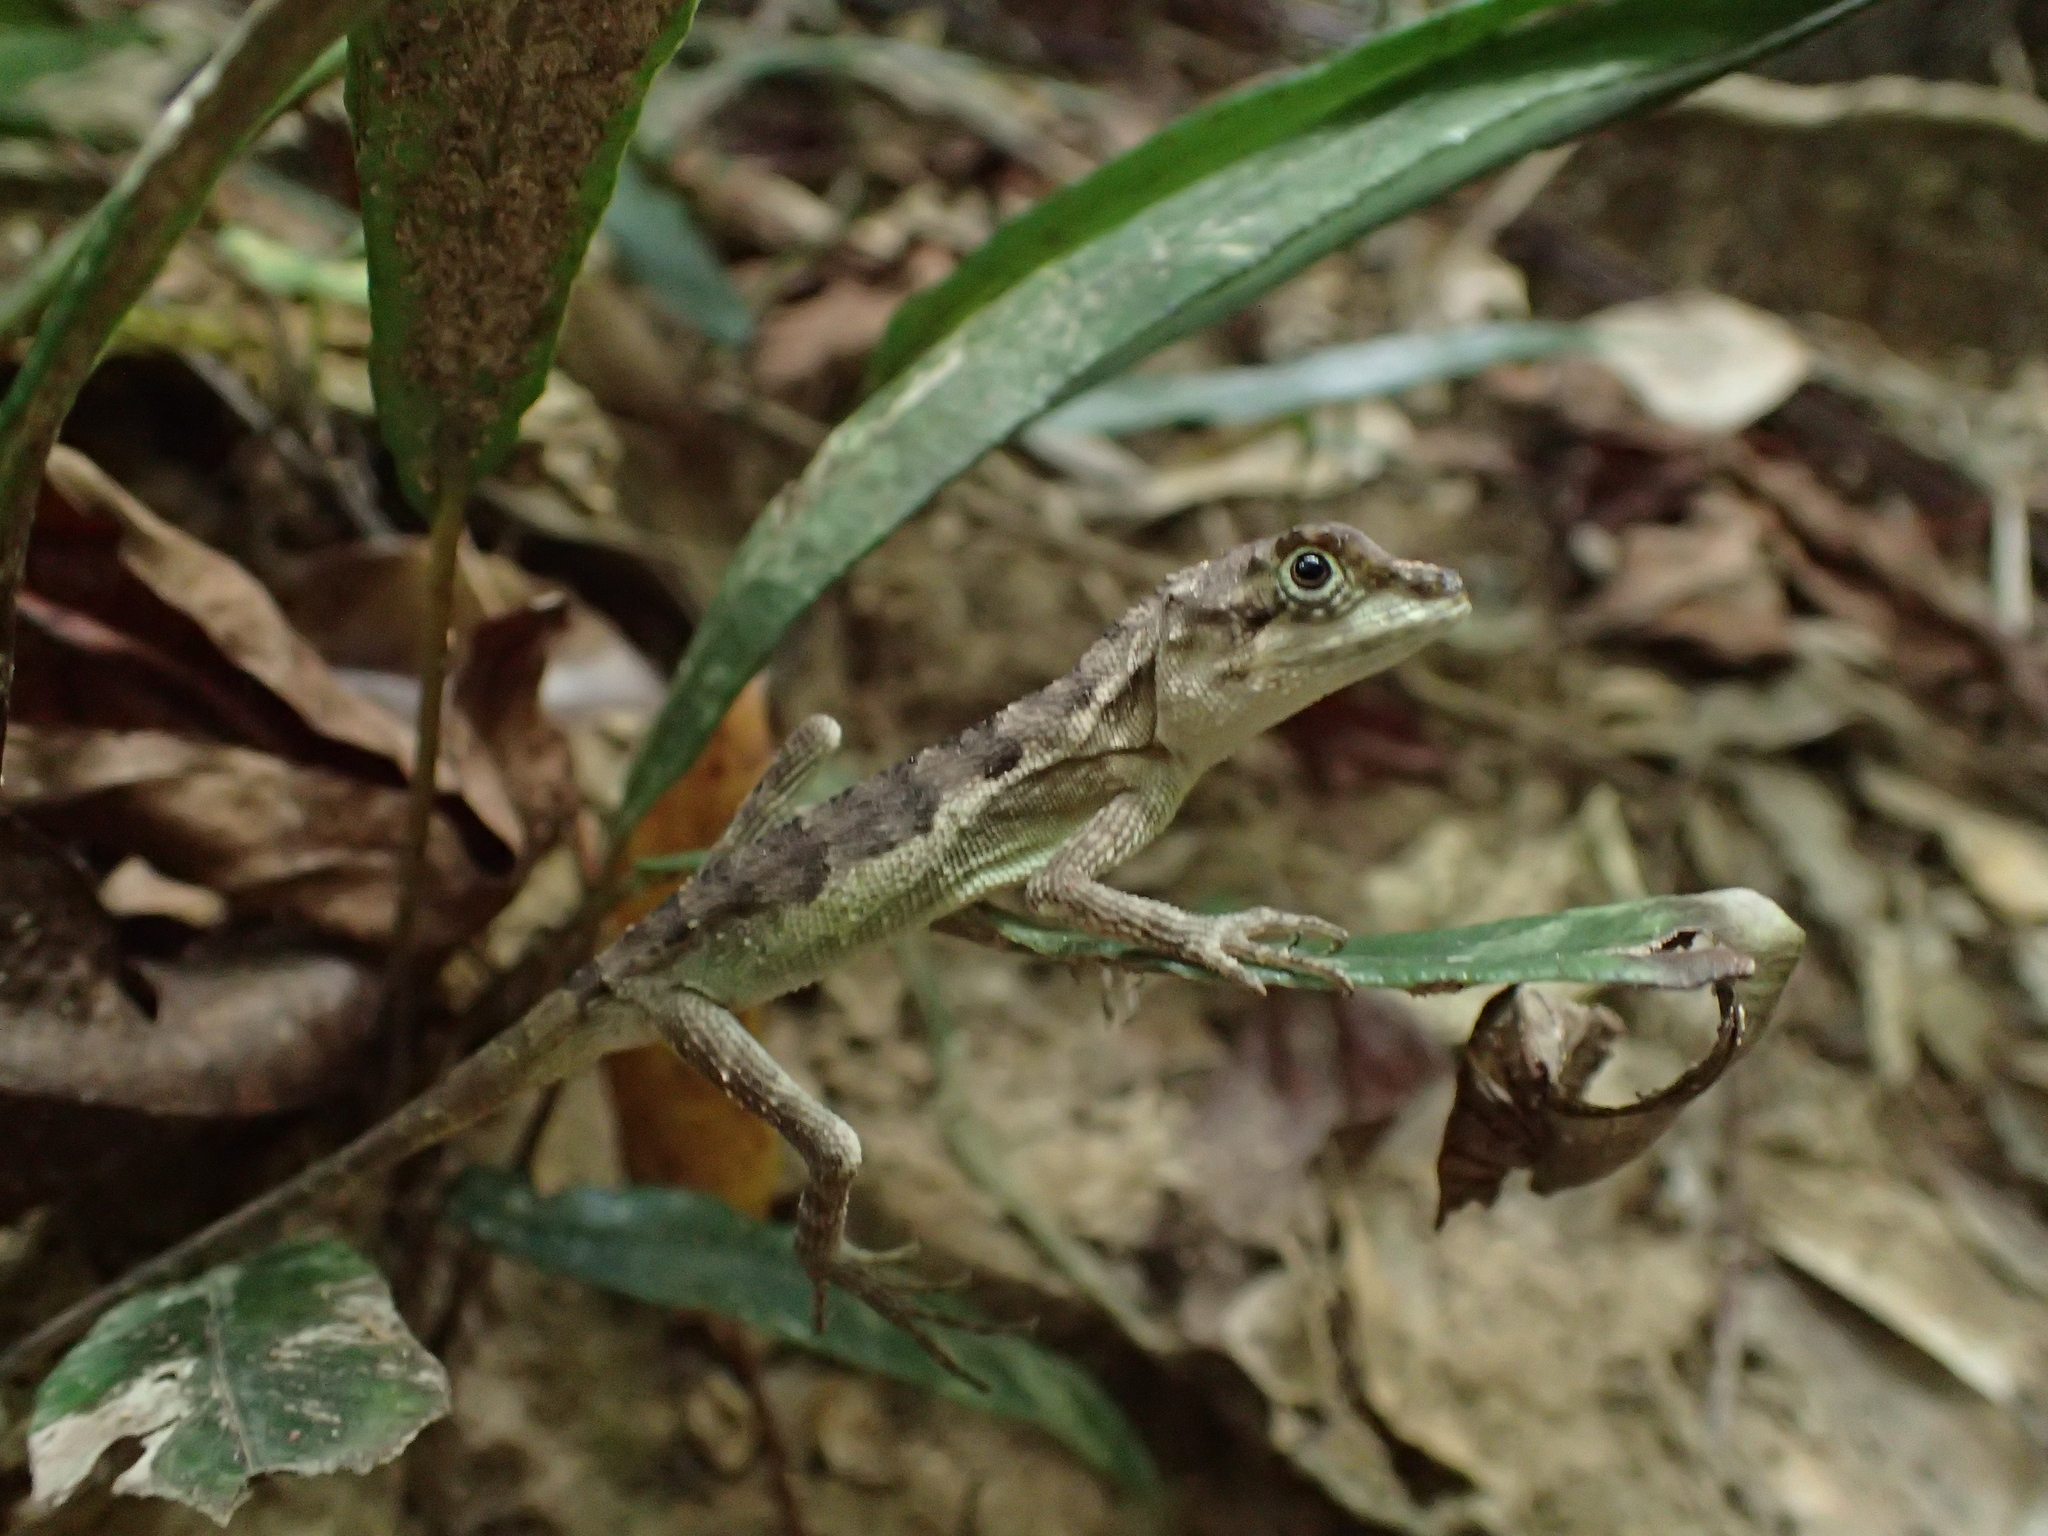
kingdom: Fungi
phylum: Basidiomycota
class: Agaricomycetes
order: Boletales
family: Diplocystidiaceae
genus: Diploderma
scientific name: Diploderma polygonatum
